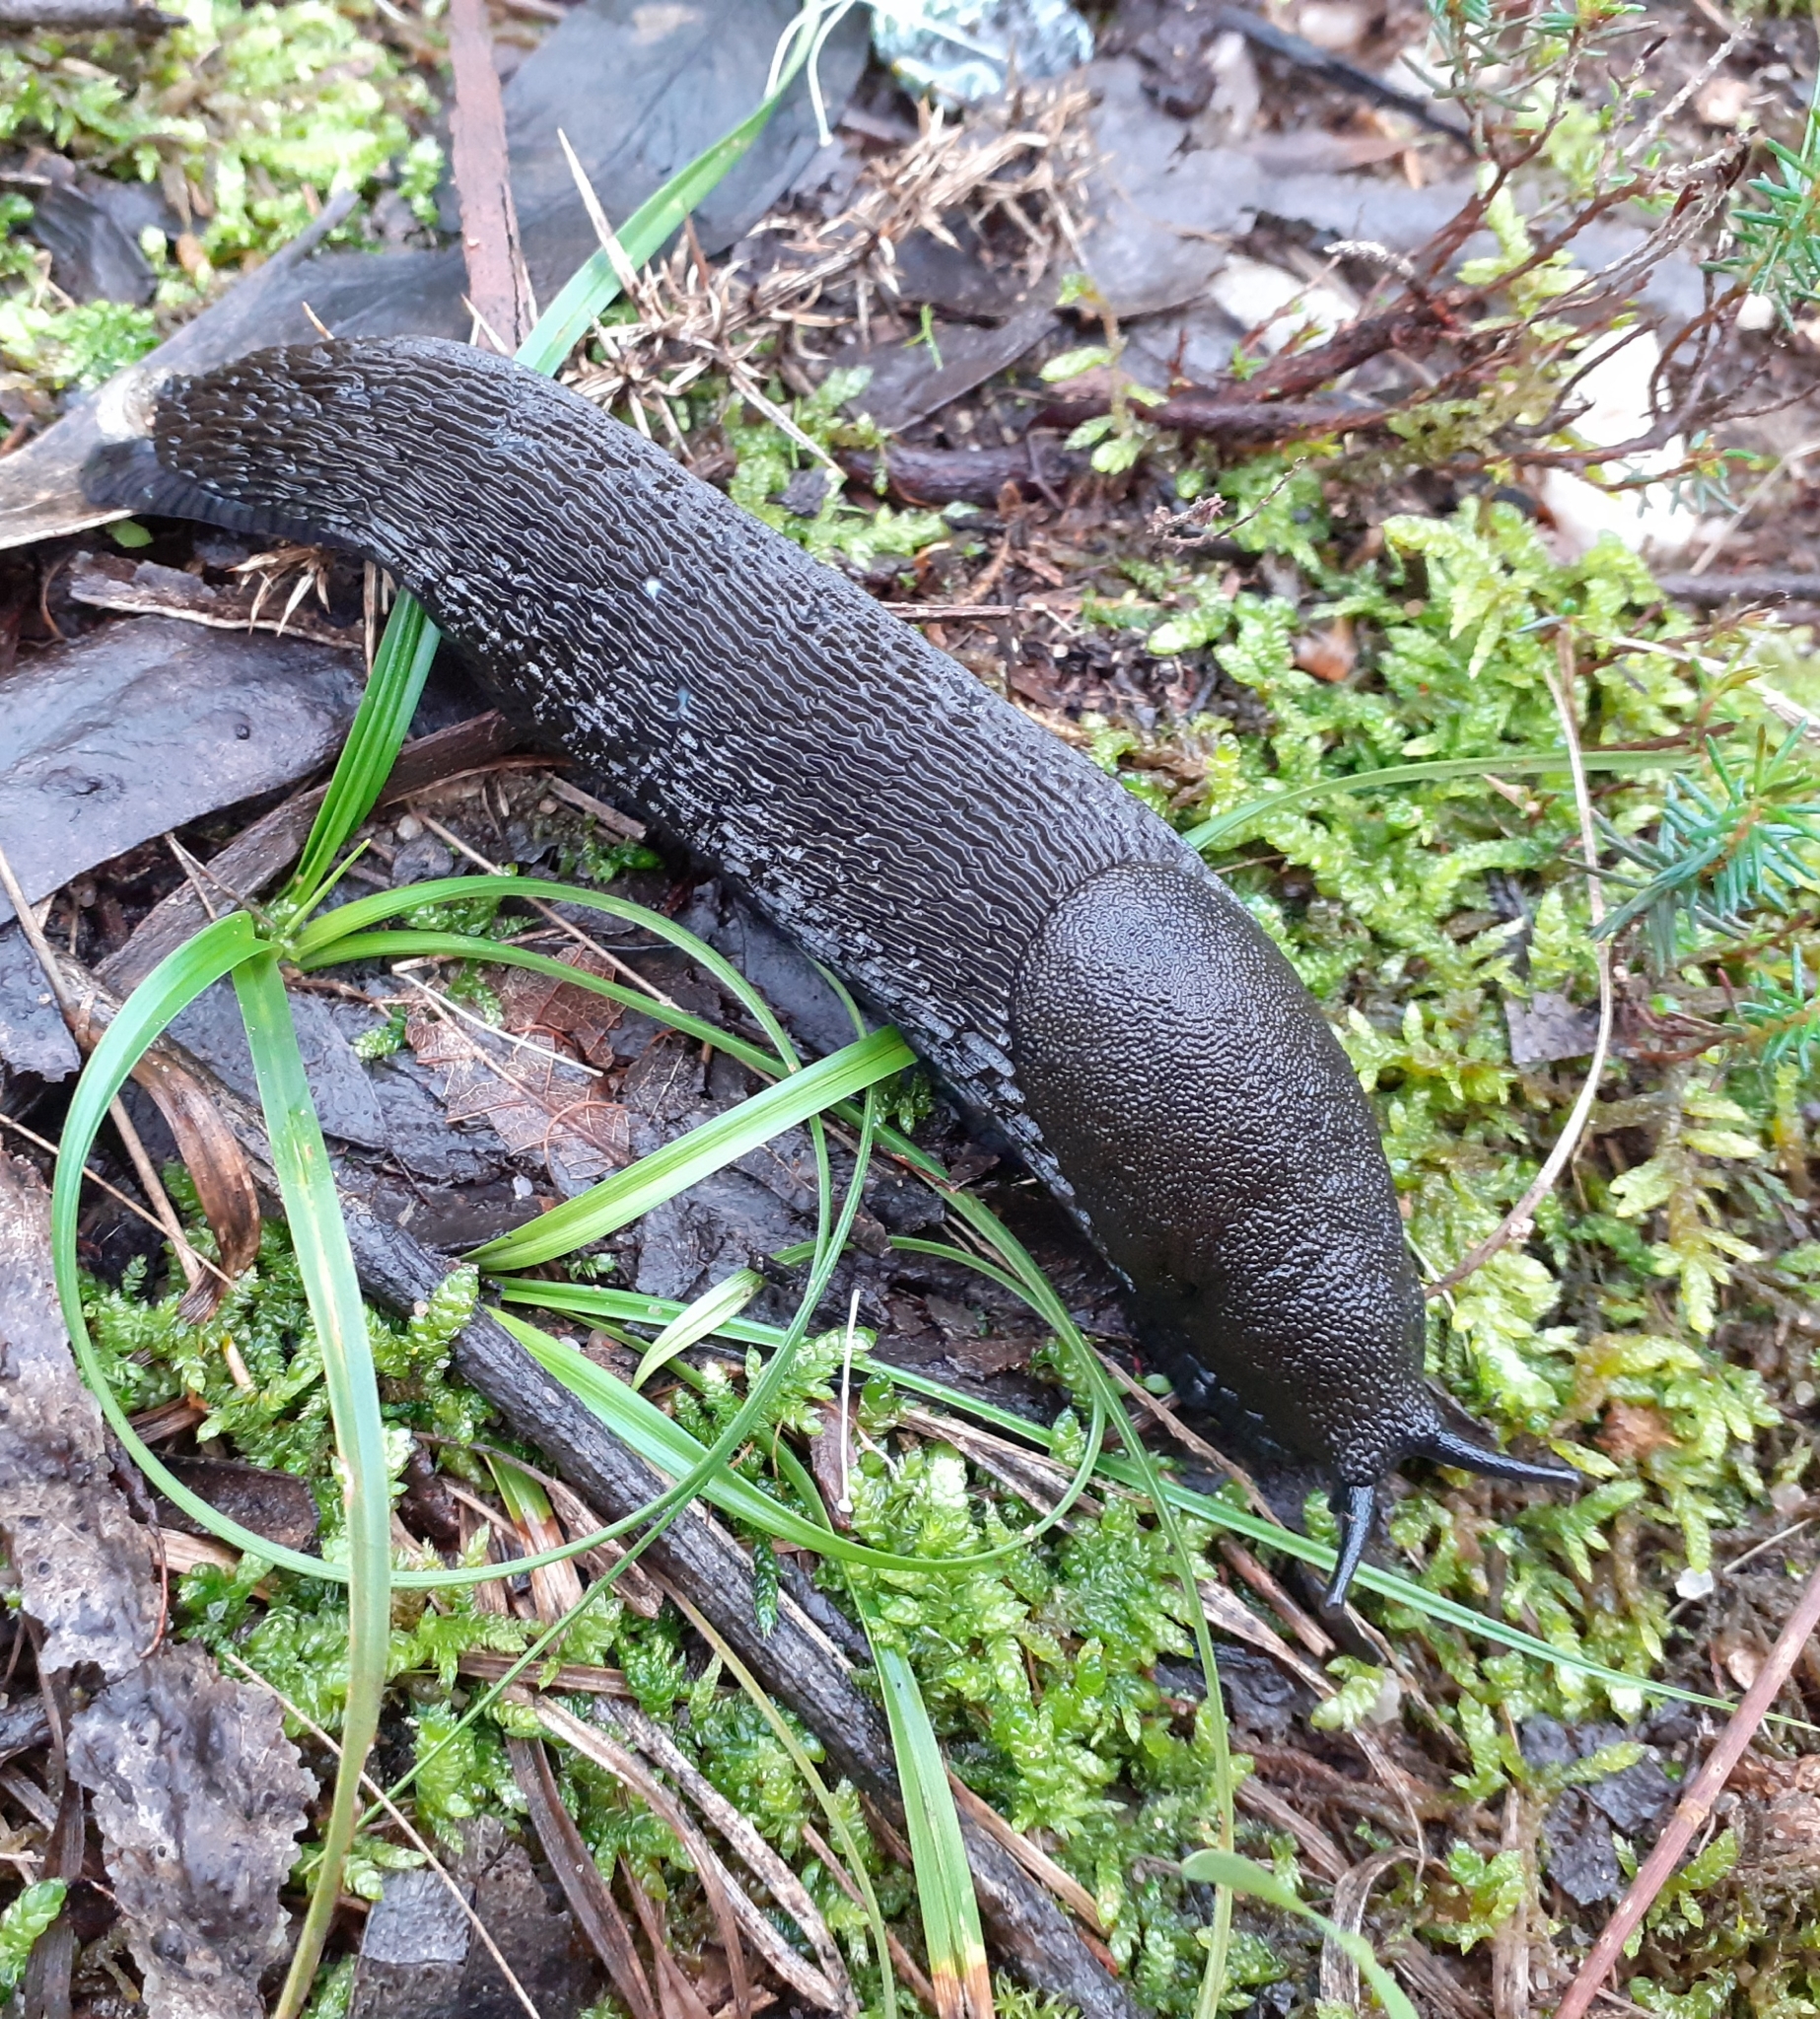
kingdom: Animalia
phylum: Mollusca
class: Gastropoda
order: Stylommatophora
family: Arionidae
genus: Arion
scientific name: Arion ater
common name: Black arion
